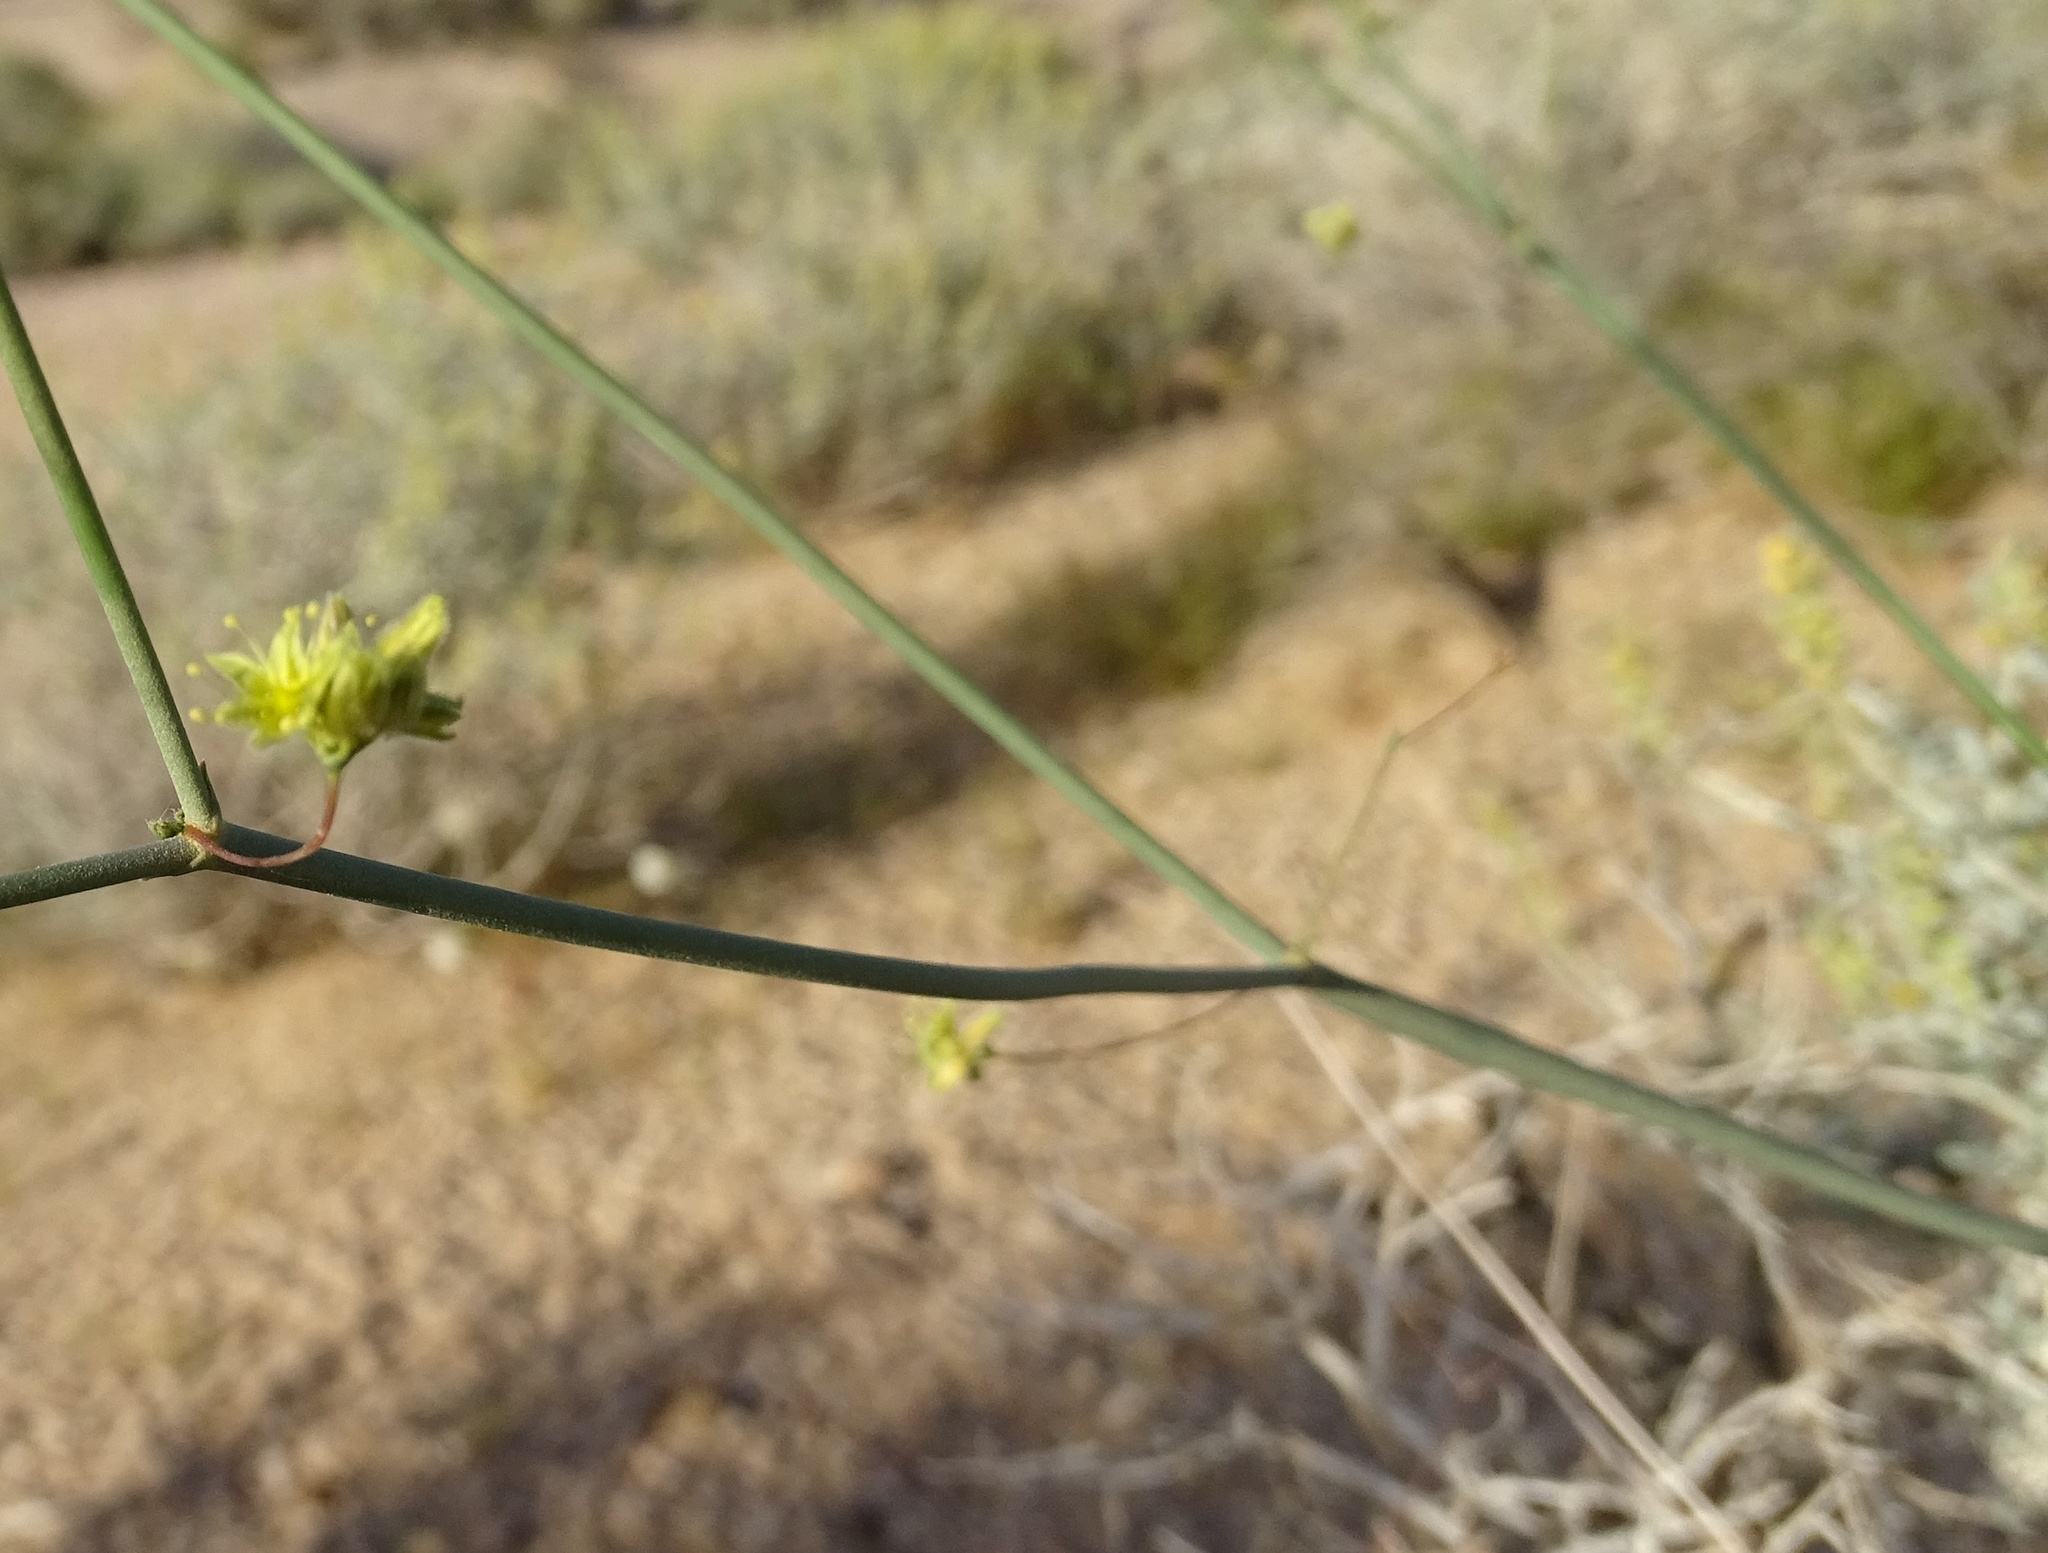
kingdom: Plantae
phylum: Tracheophyta
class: Magnoliopsida
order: Caryophyllales
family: Polygonaceae
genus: Eriogonum
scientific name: Eriogonum inflatum
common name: Desert trumpet
